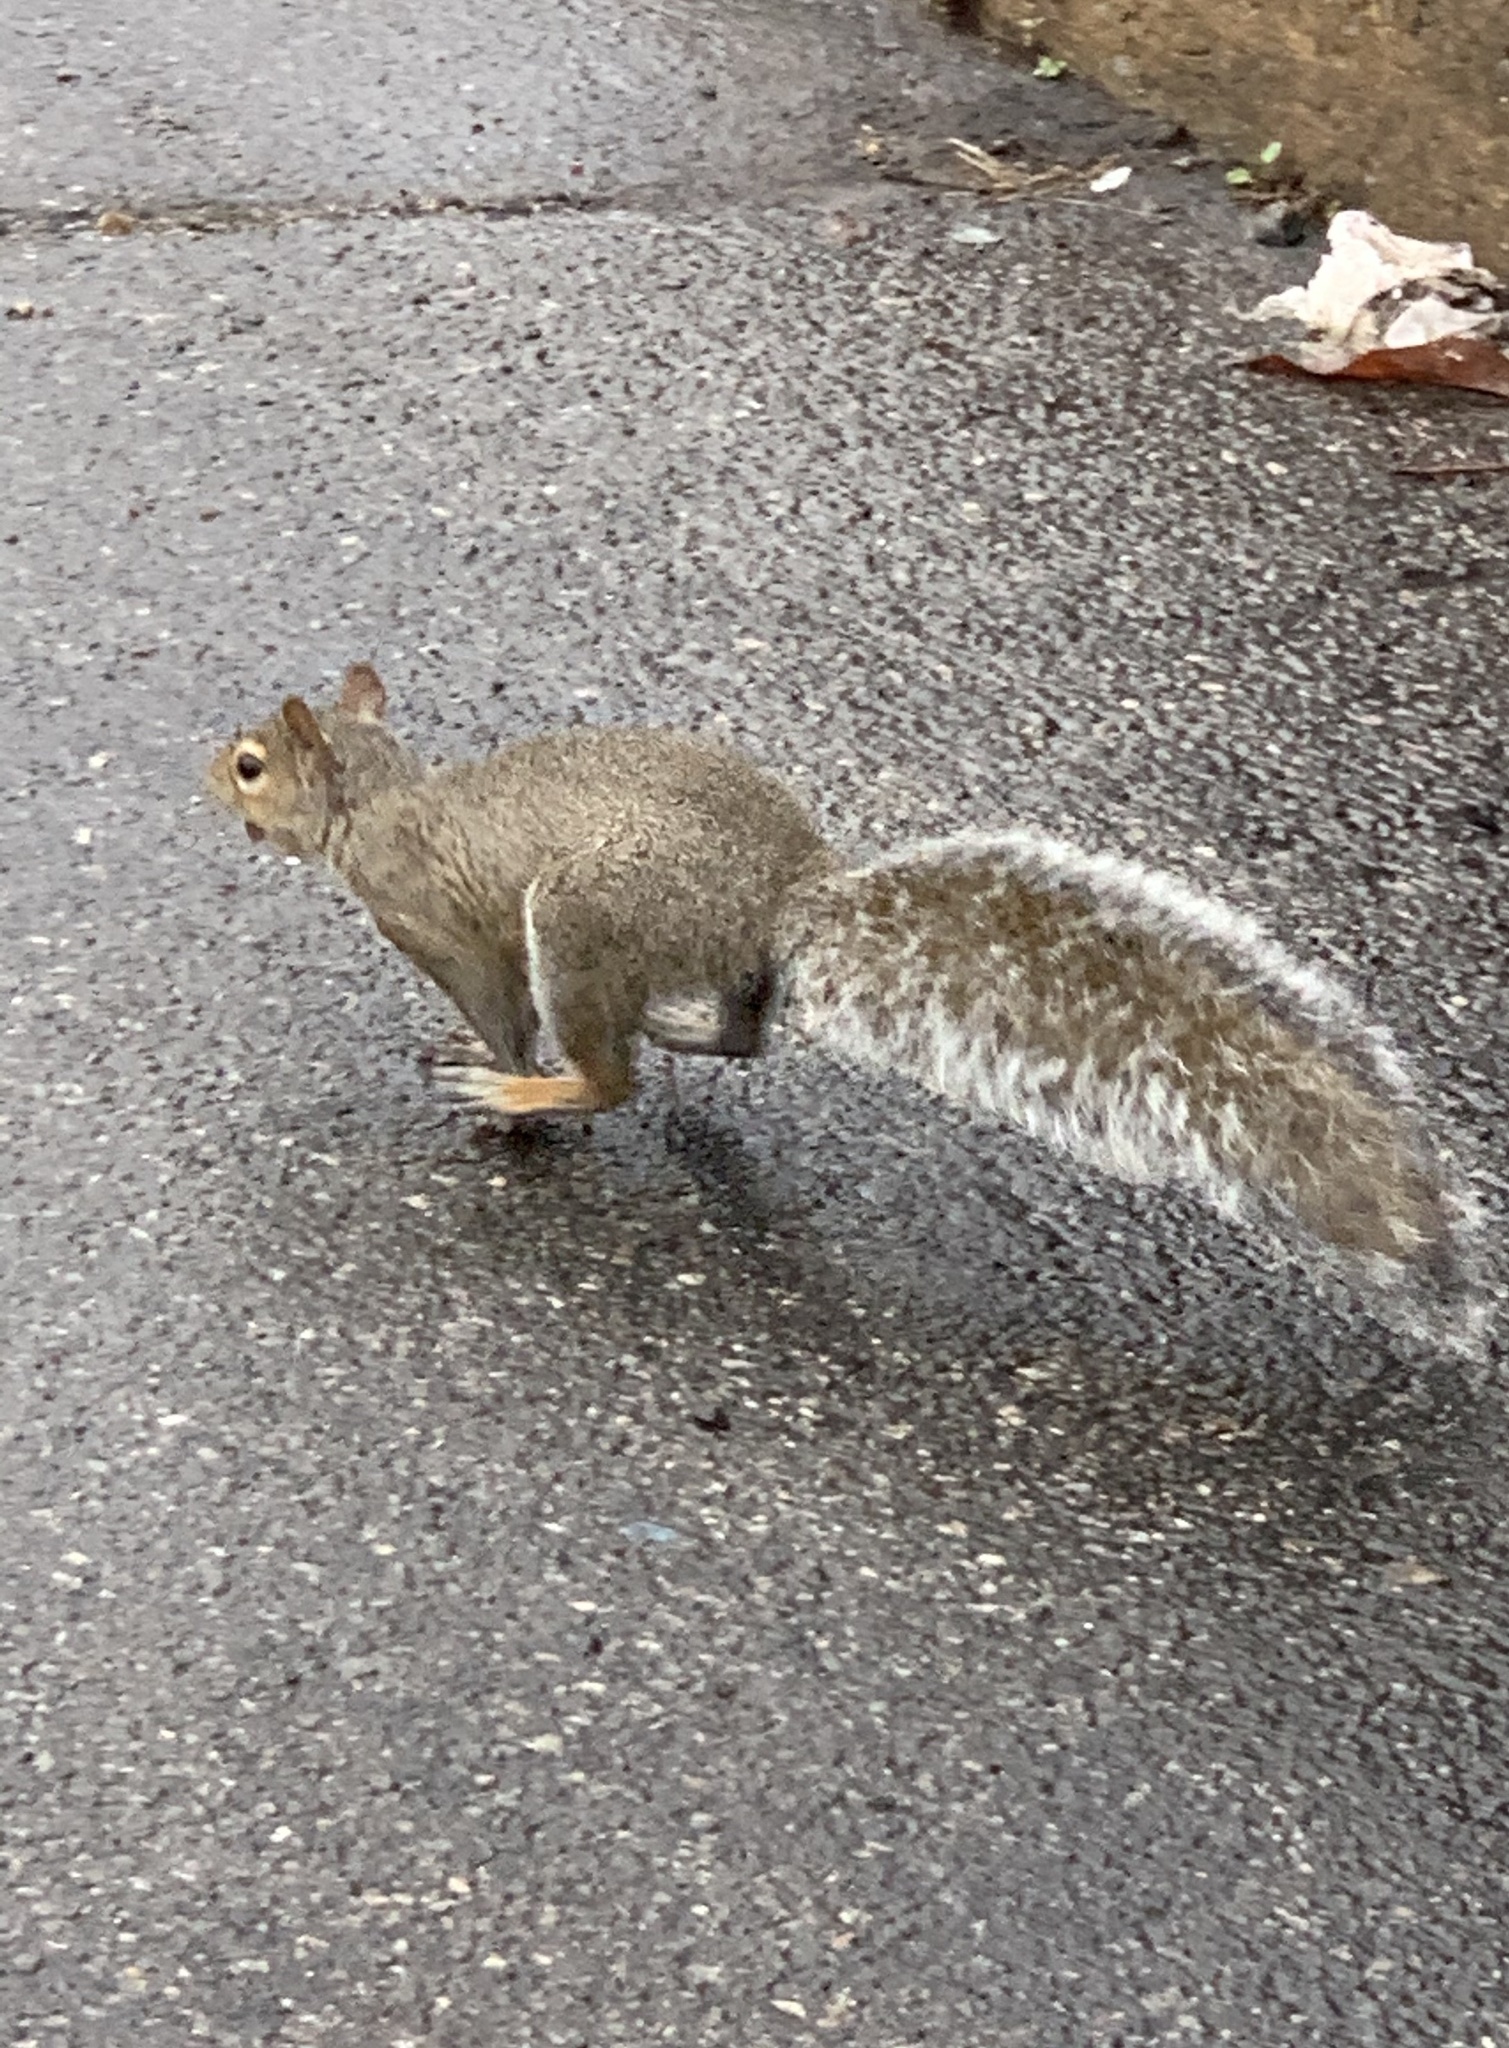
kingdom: Animalia
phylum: Chordata
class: Mammalia
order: Rodentia
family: Sciuridae
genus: Sciurus
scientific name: Sciurus carolinensis
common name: Eastern gray squirrel
